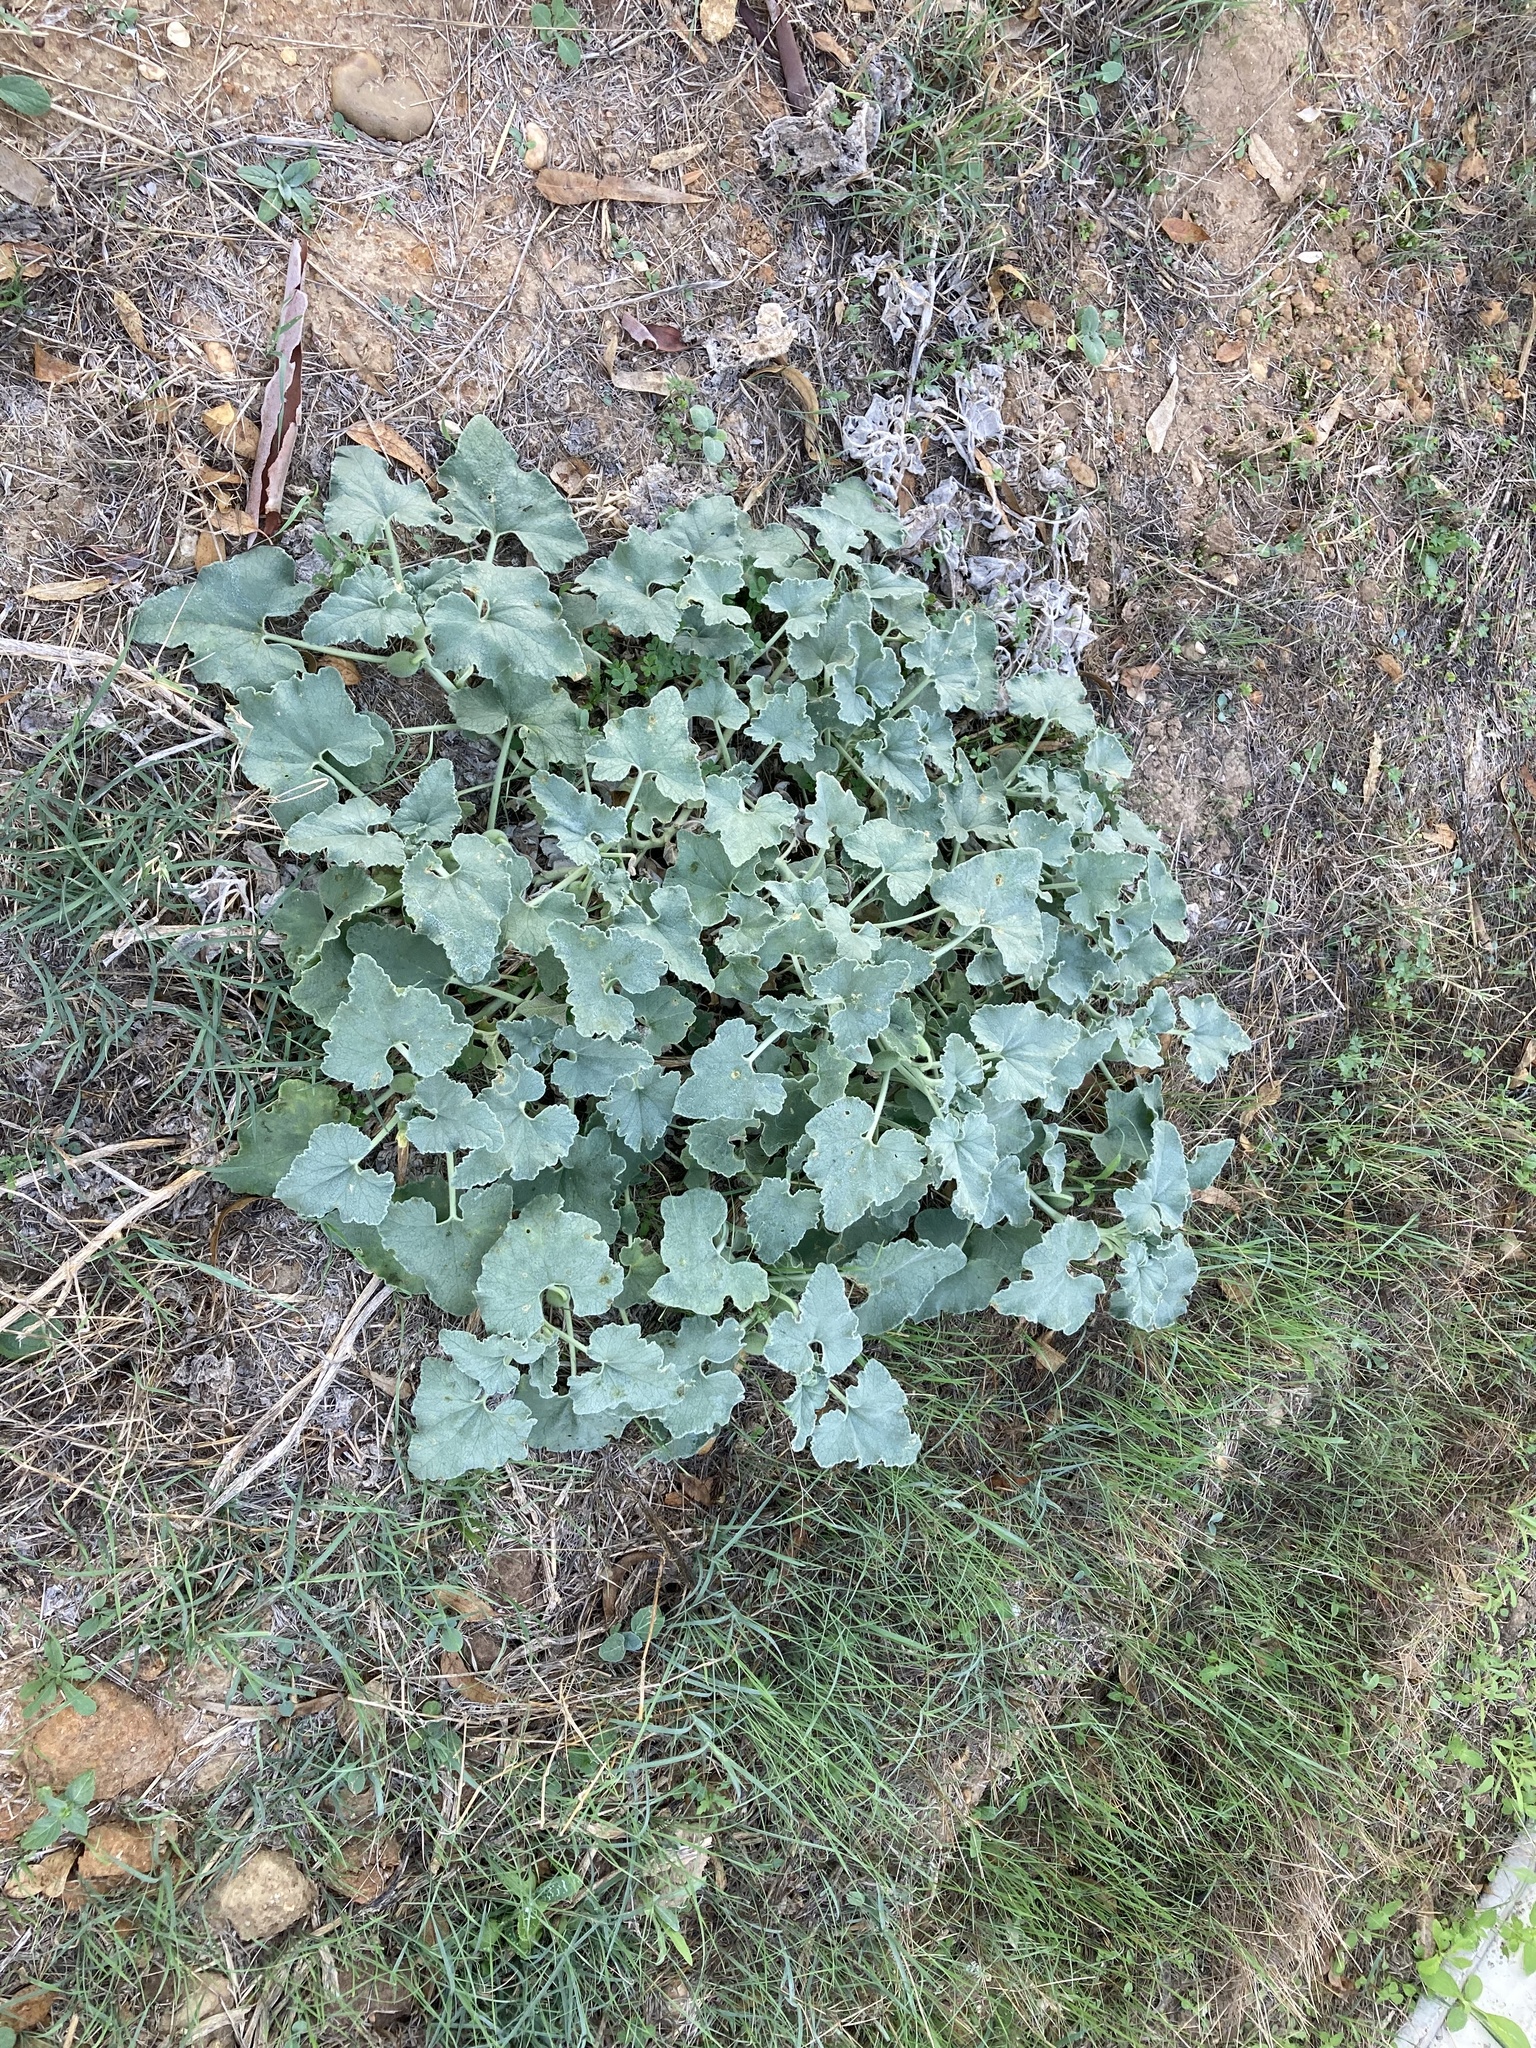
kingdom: Plantae
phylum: Tracheophyta
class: Magnoliopsida
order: Cucurbitales
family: Cucurbitaceae
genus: Ecballium
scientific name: Ecballium elaterium
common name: Squirting cucumber
